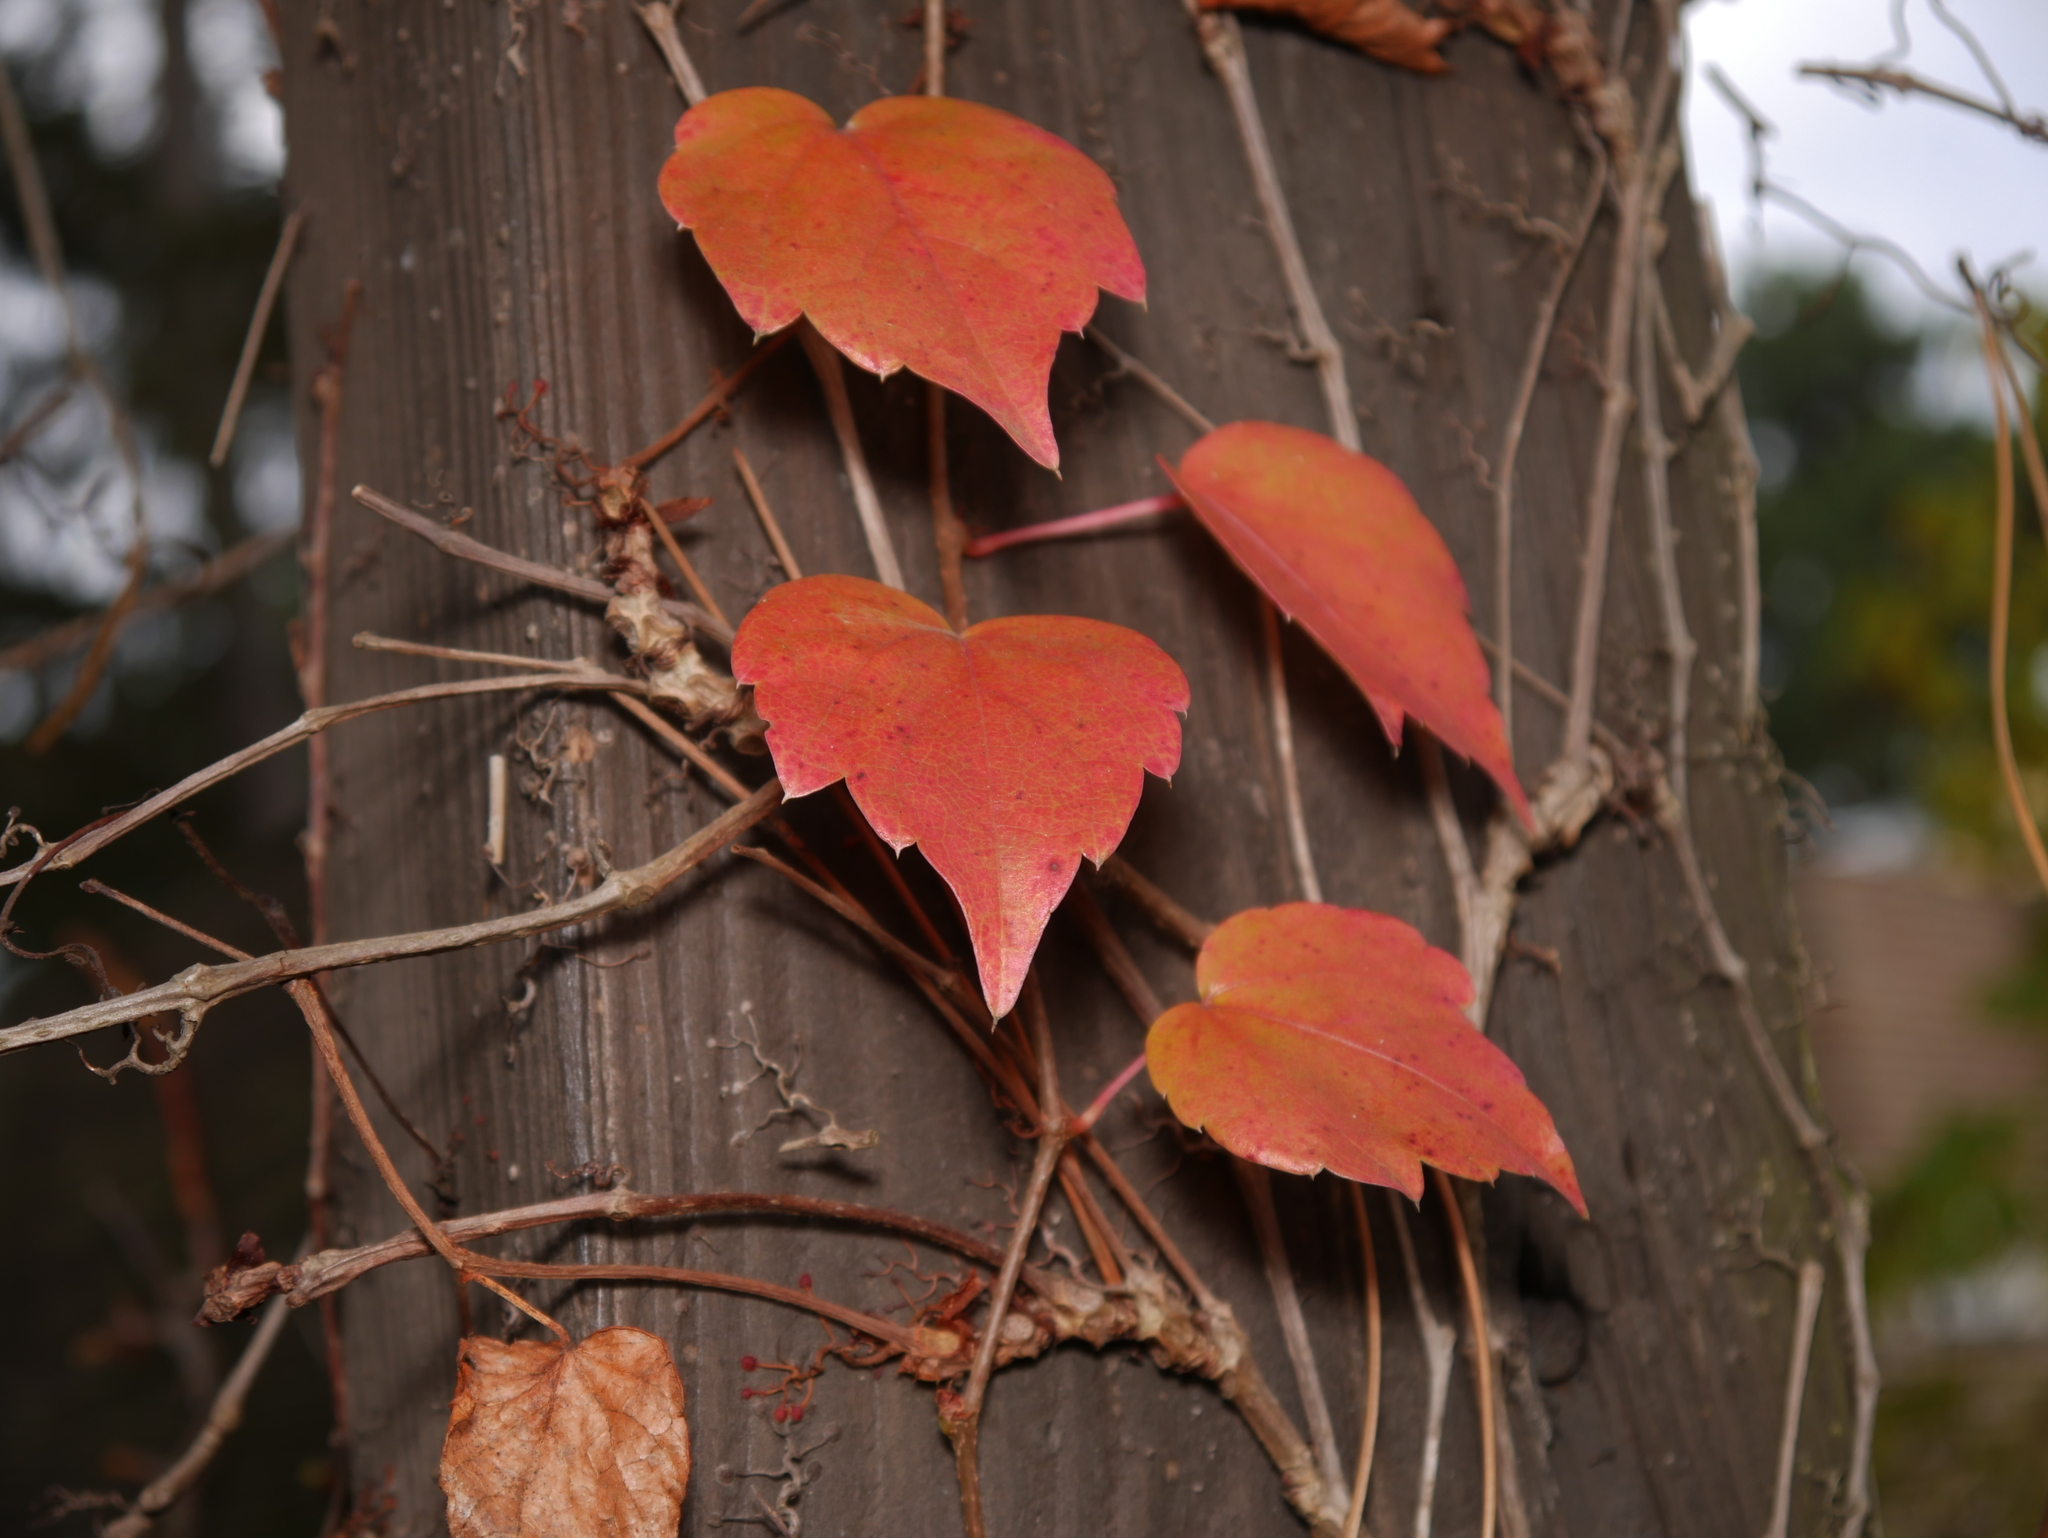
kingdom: Plantae
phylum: Tracheophyta
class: Magnoliopsida
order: Vitales
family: Vitaceae
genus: Parthenocissus
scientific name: Parthenocissus tricuspidata
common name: Boston ivy
